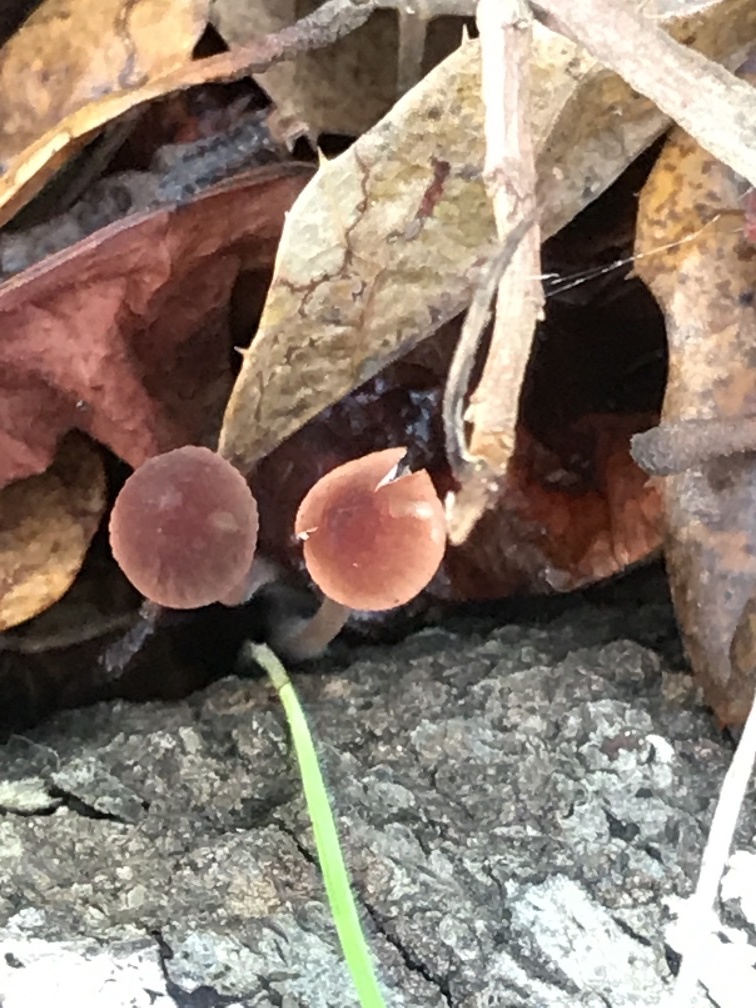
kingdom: Fungi
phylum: Basidiomycota
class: Agaricomycetes
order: Agaricales
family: Mycenaceae
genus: Mycena
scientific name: Mycena
